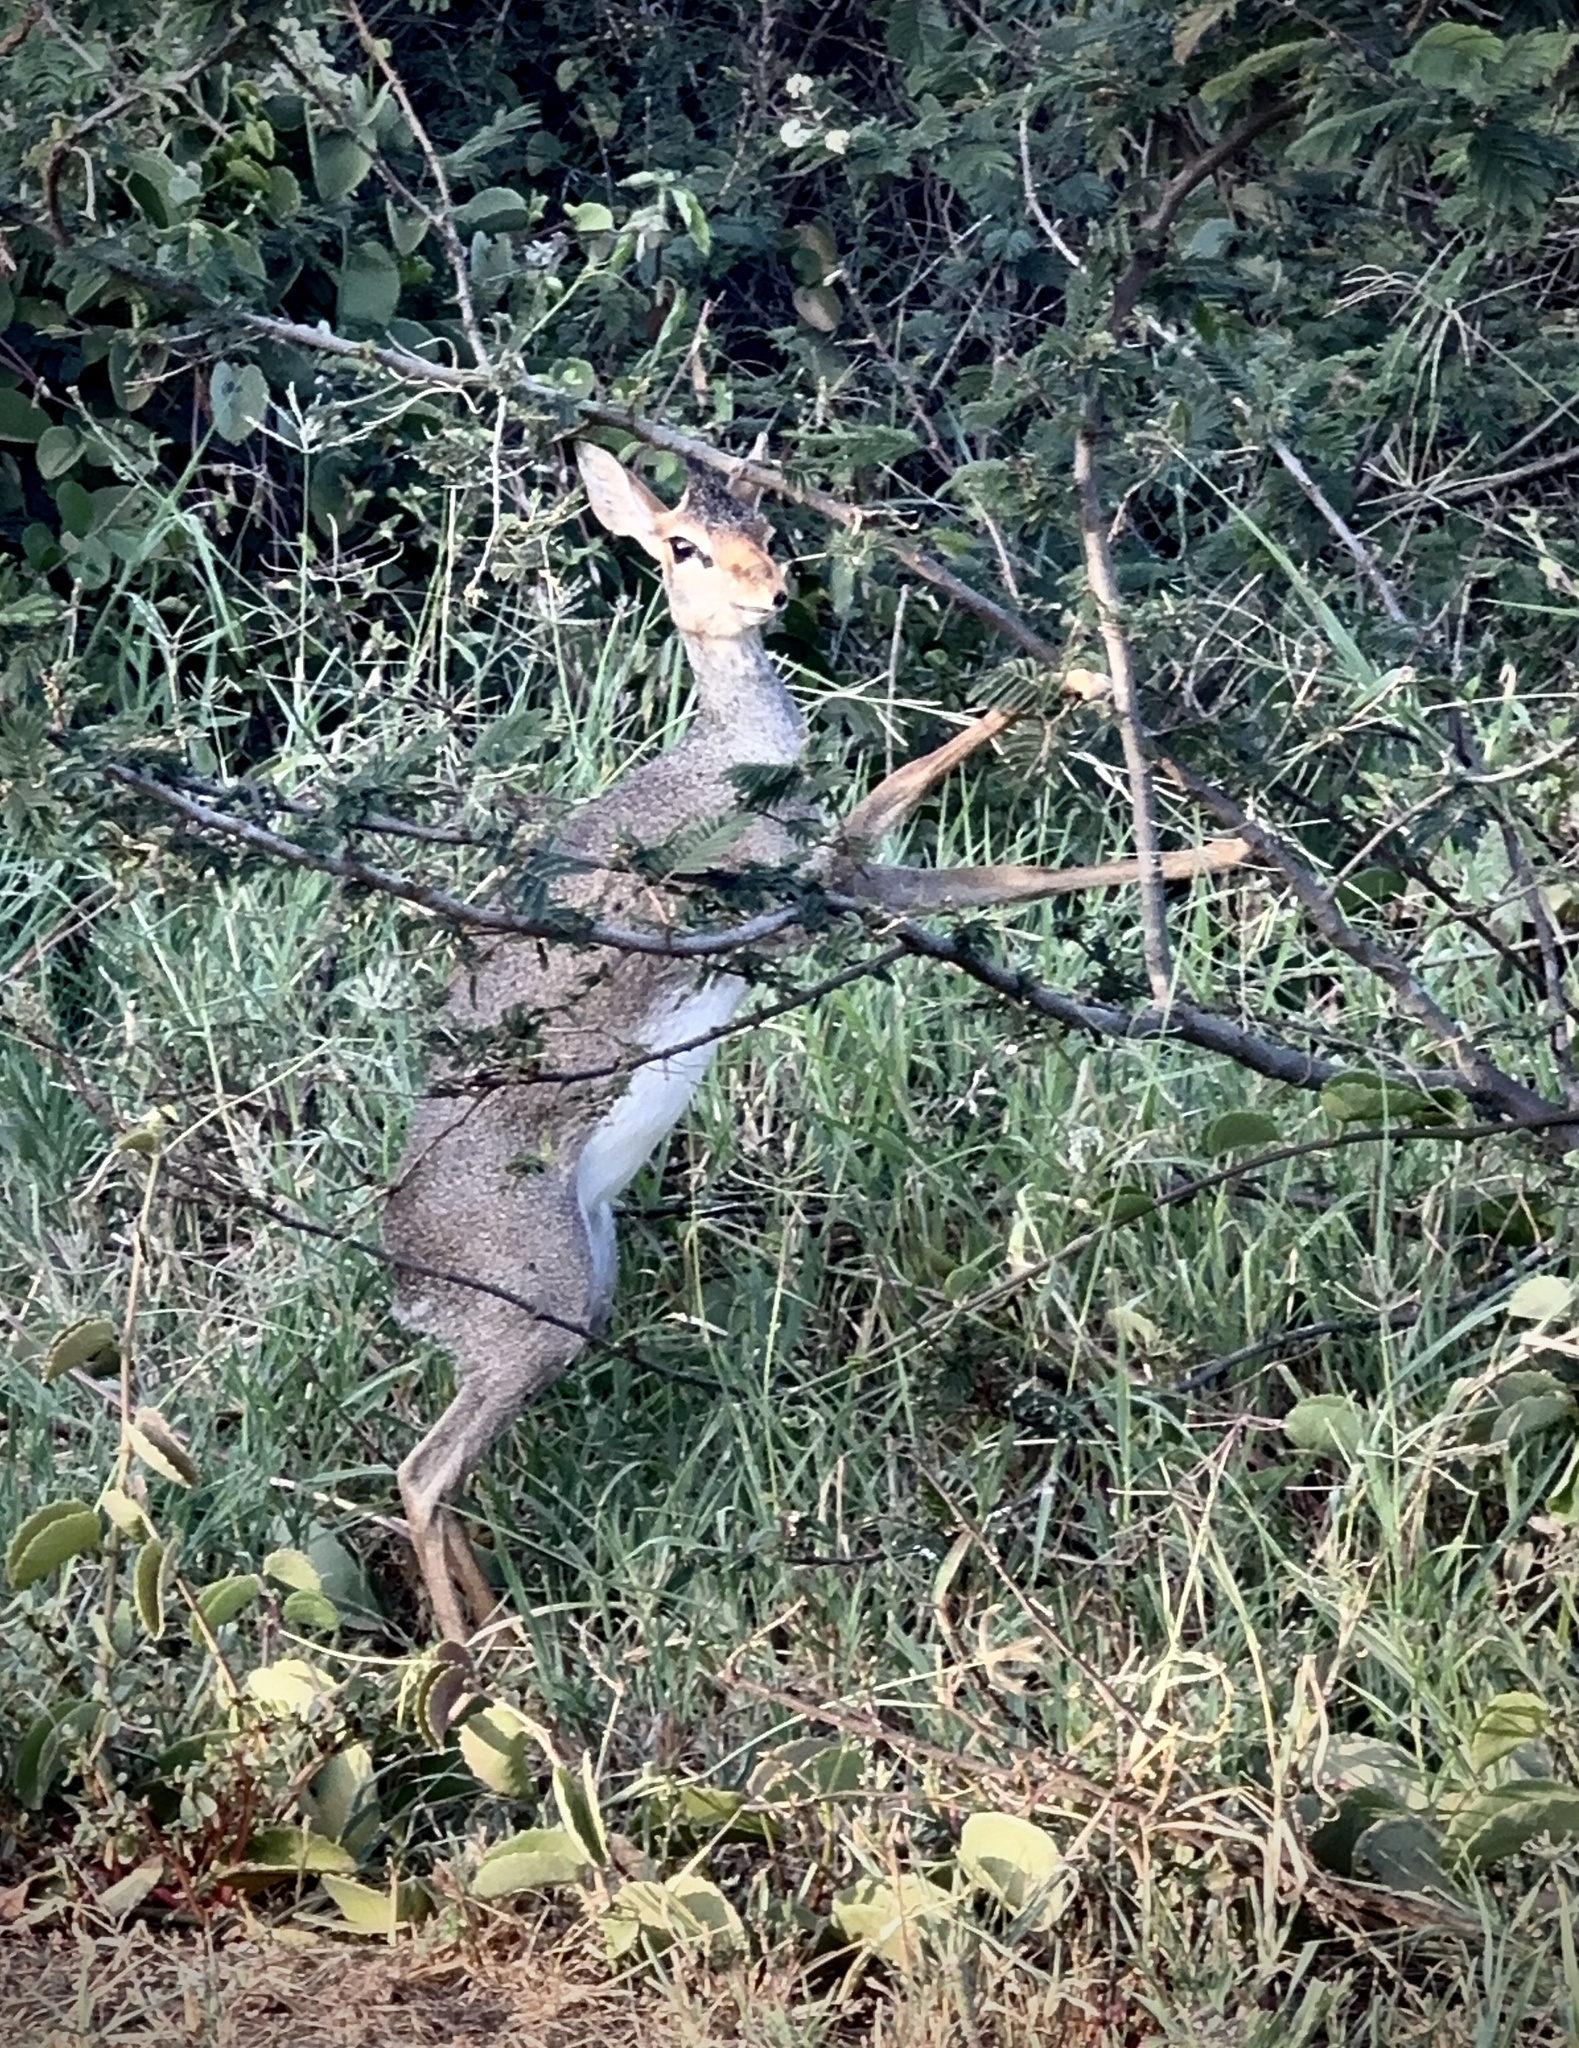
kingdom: Animalia
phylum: Chordata
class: Mammalia
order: Artiodactyla
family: Bovidae
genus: Madoqua
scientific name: Madoqua guentheri
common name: Günther's dikdik
